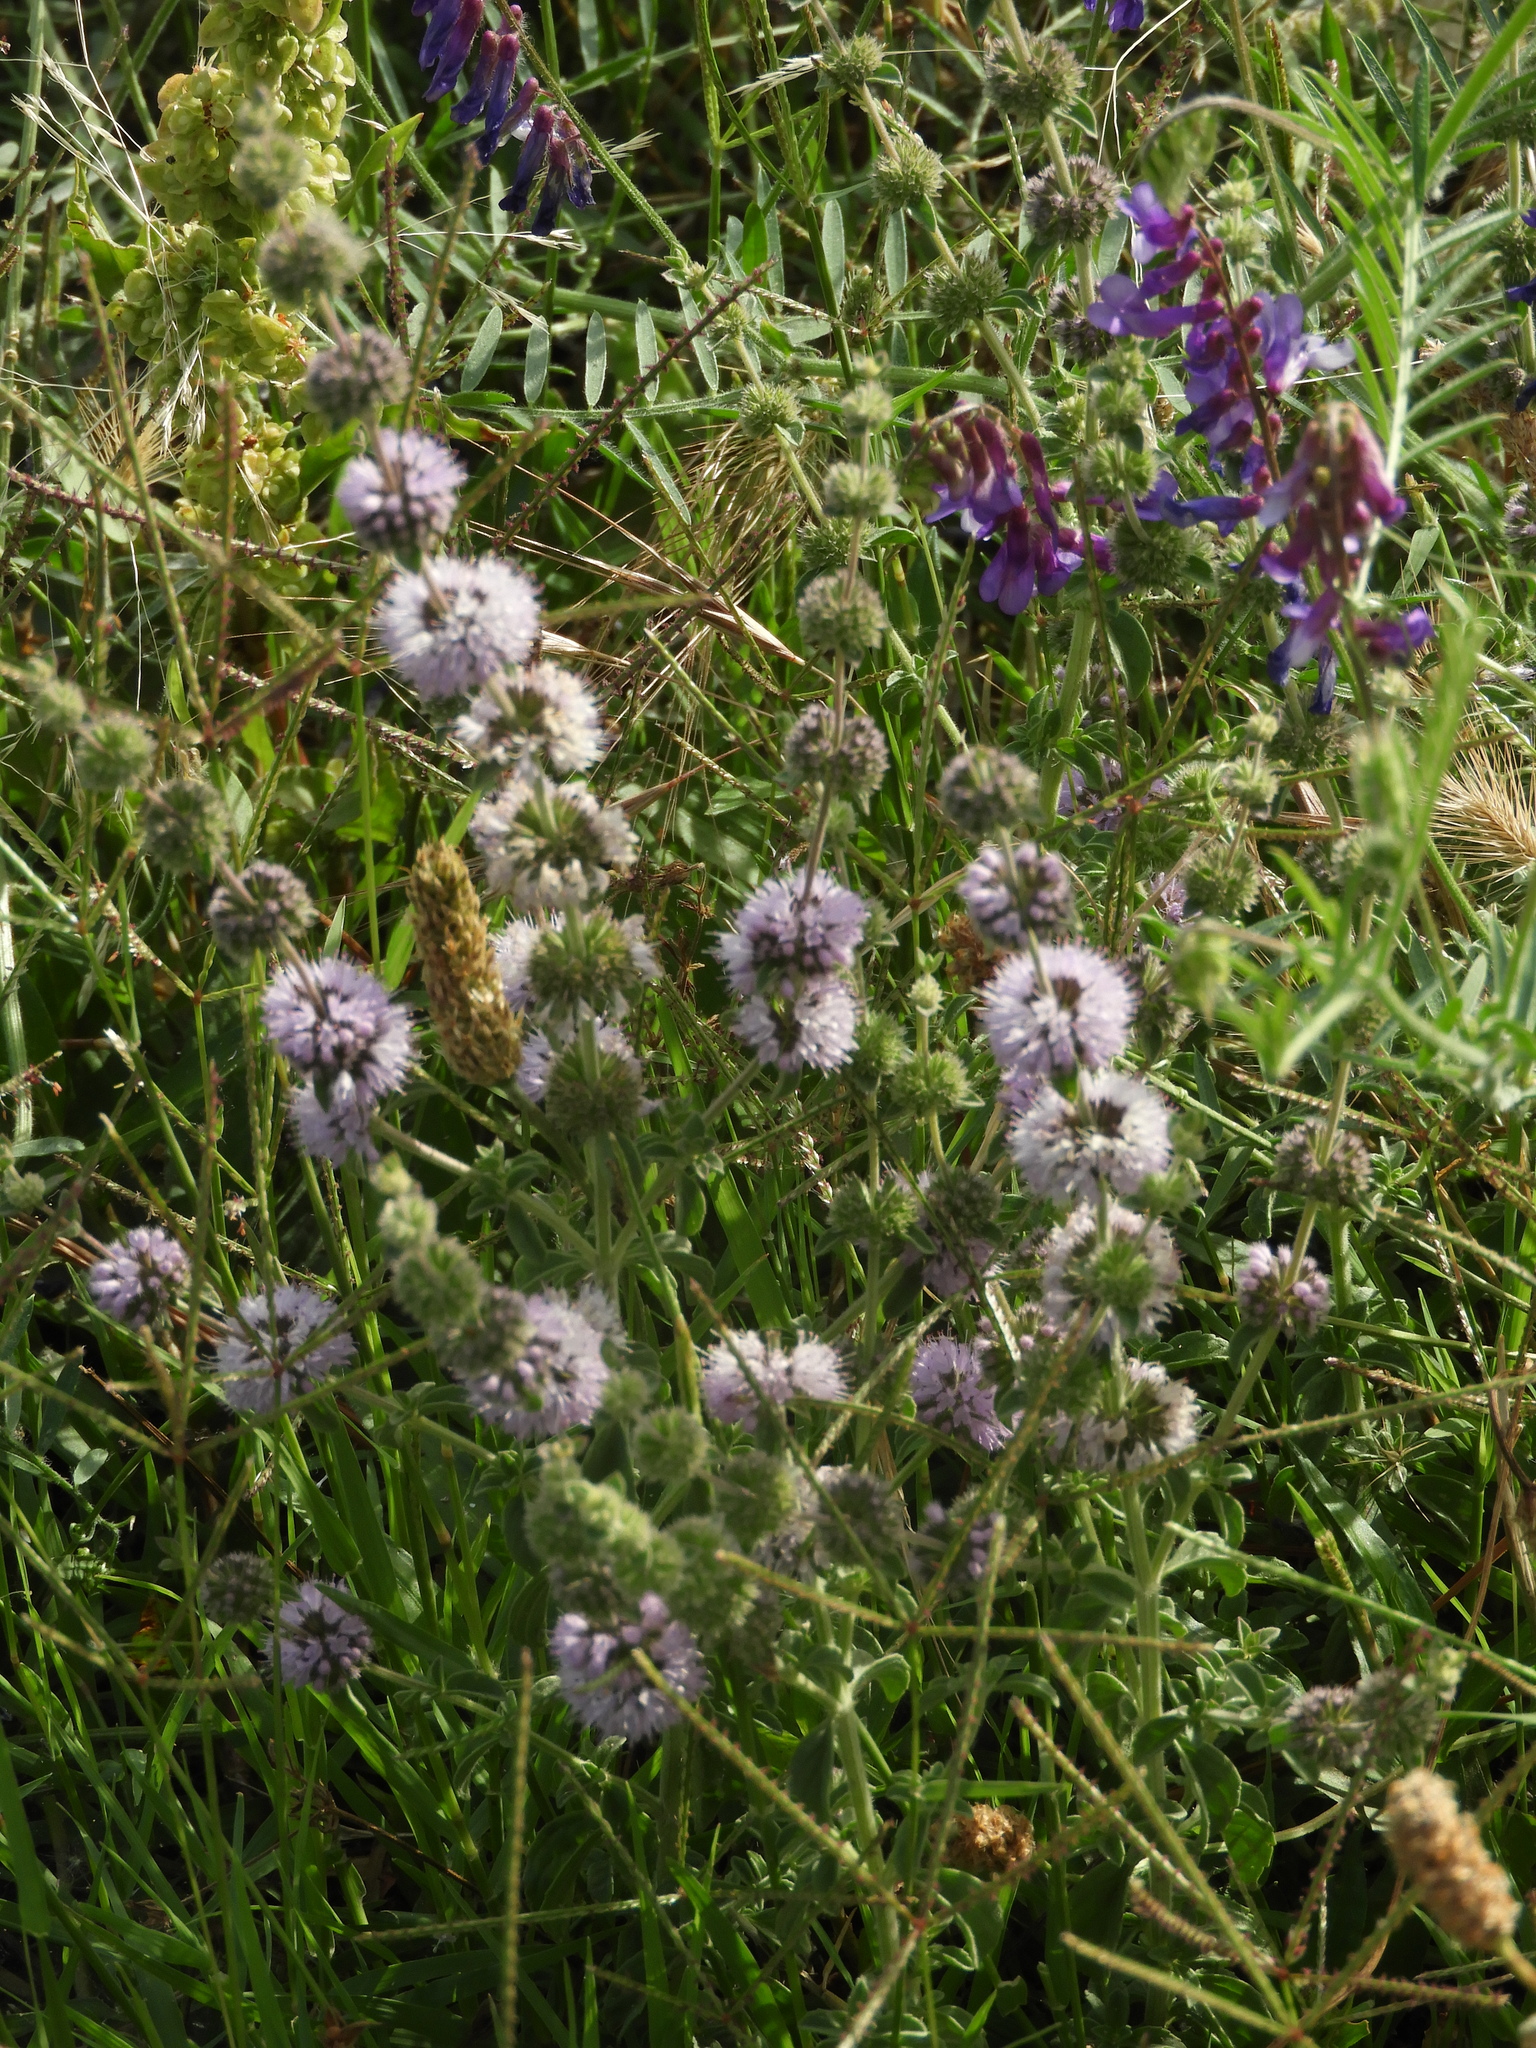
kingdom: Plantae
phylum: Tracheophyta
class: Magnoliopsida
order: Lamiales
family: Lamiaceae
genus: Mentha
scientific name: Mentha pulegium
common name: Pennyroyal
